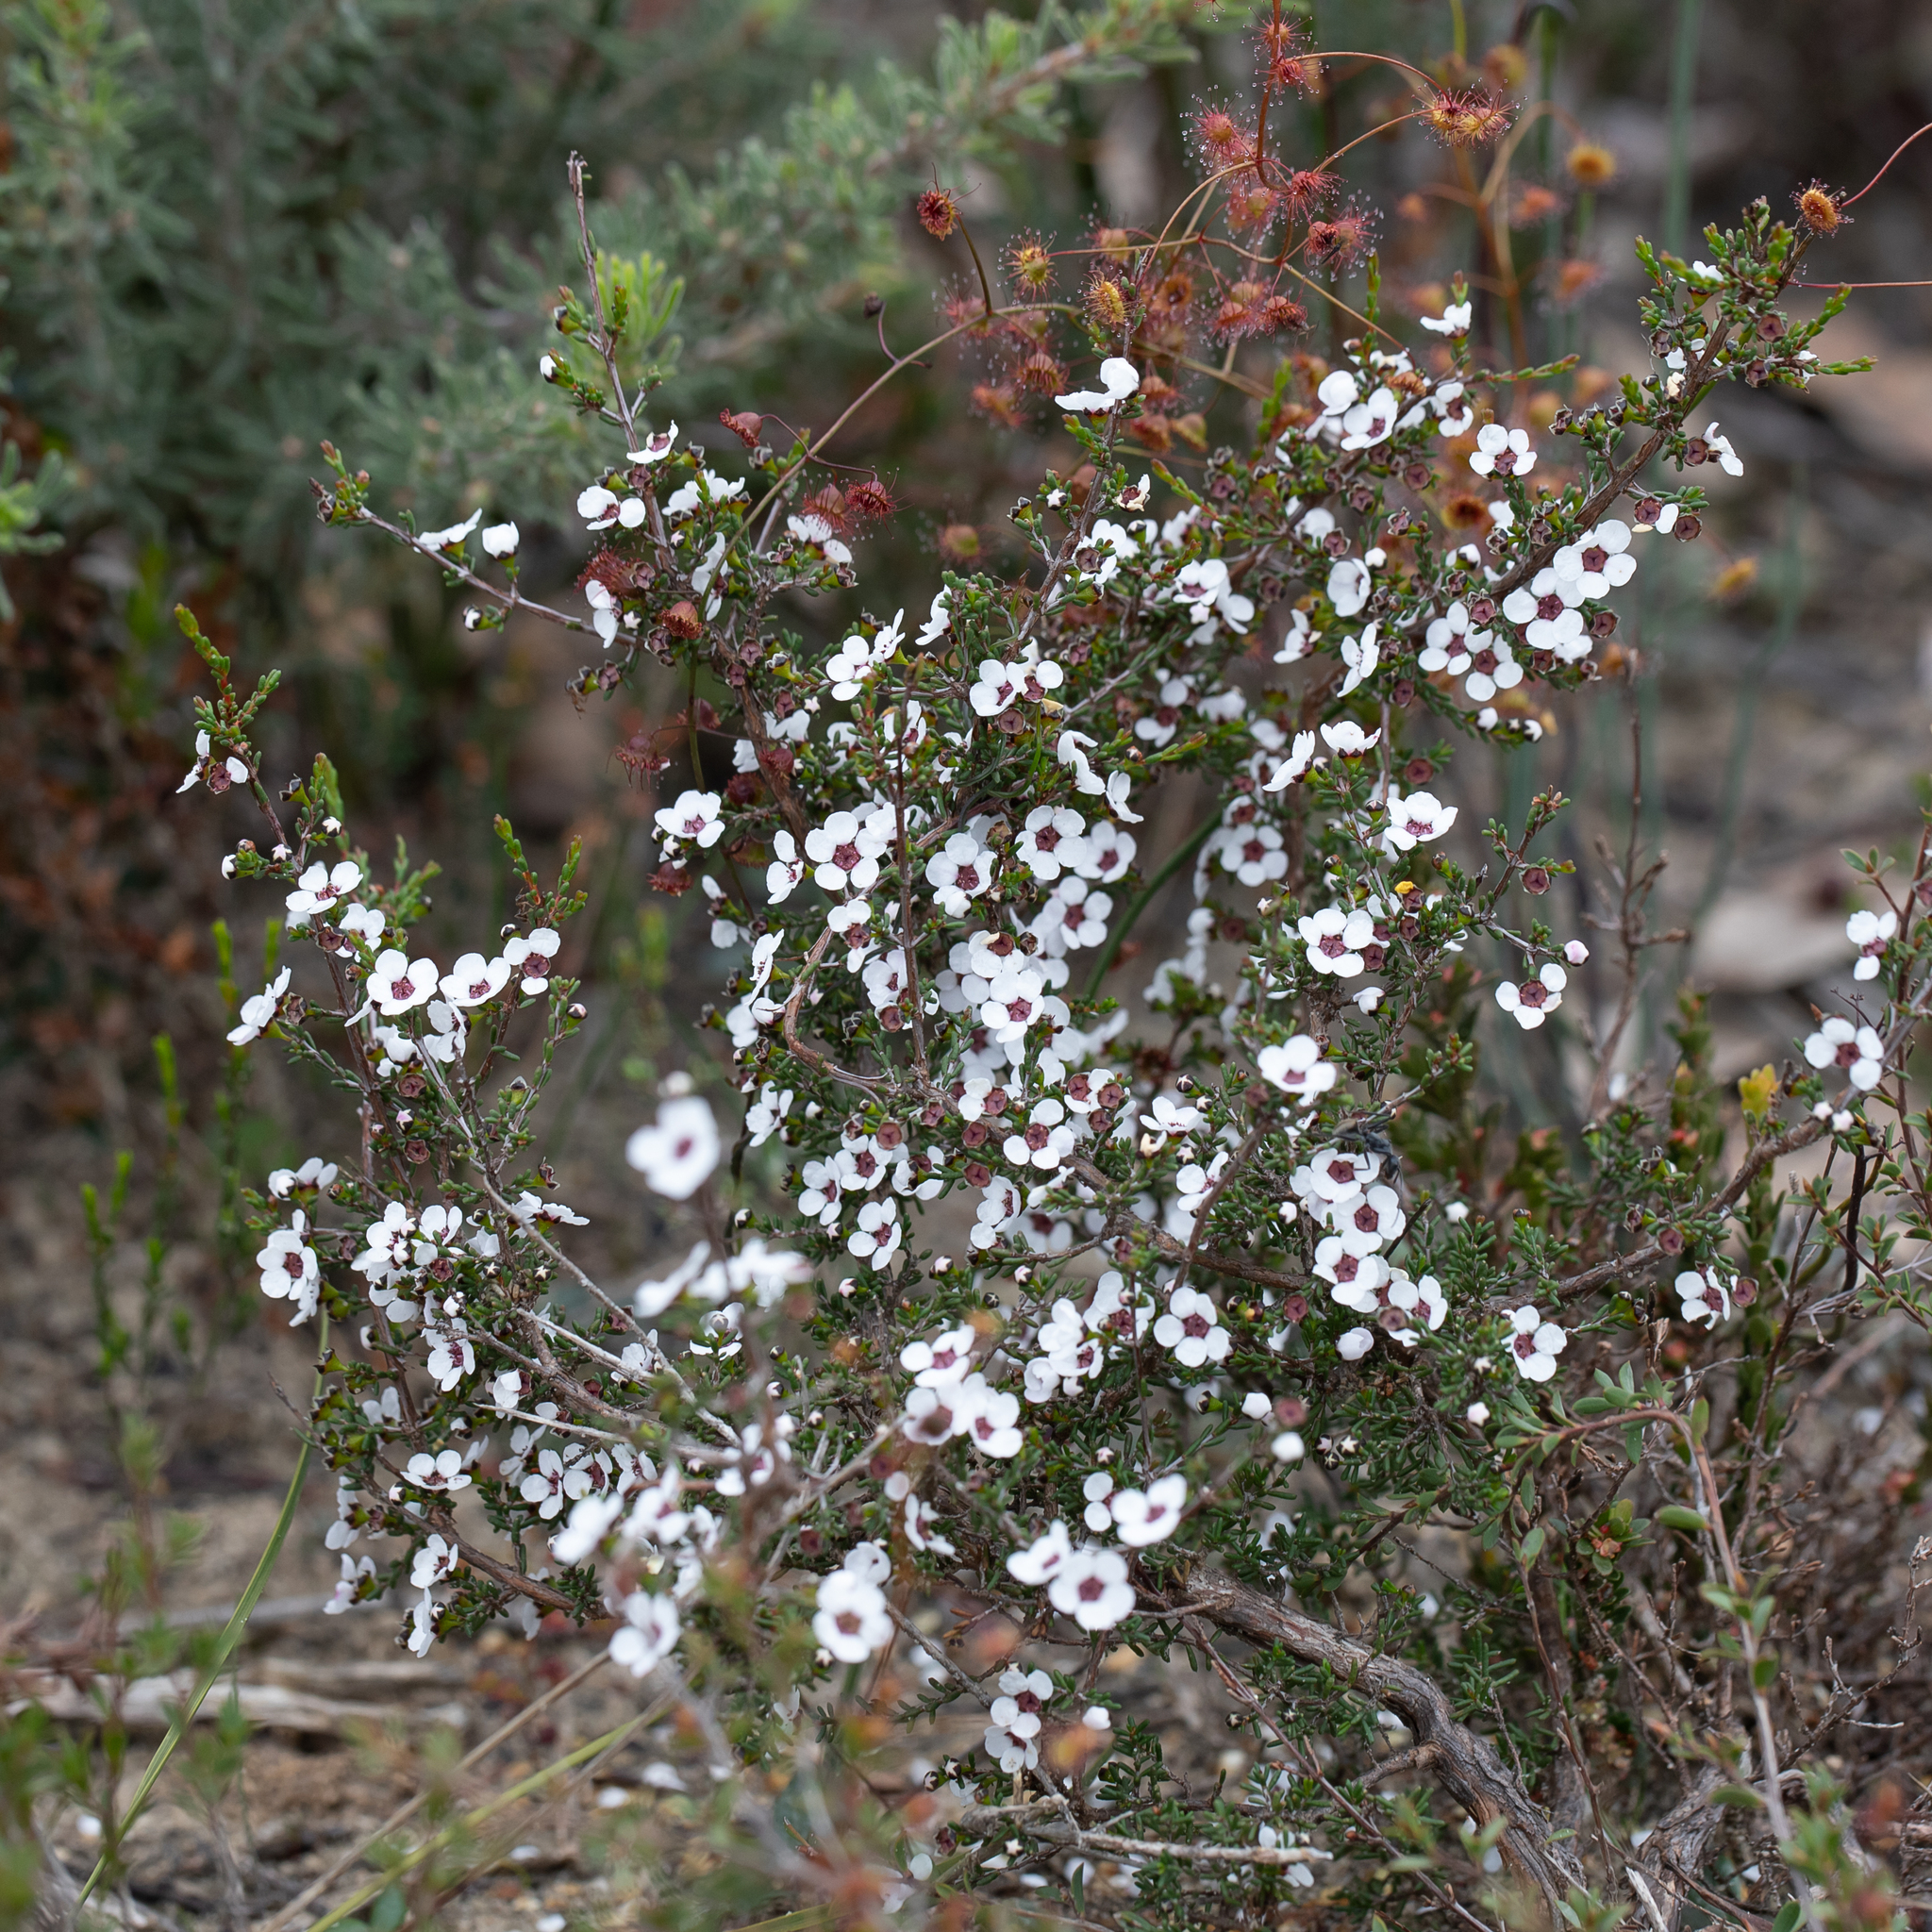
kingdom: Plantae
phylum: Tracheophyta
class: Magnoliopsida
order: Myrtales
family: Myrtaceae
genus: Rinzia
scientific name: Rinzia orientalis
